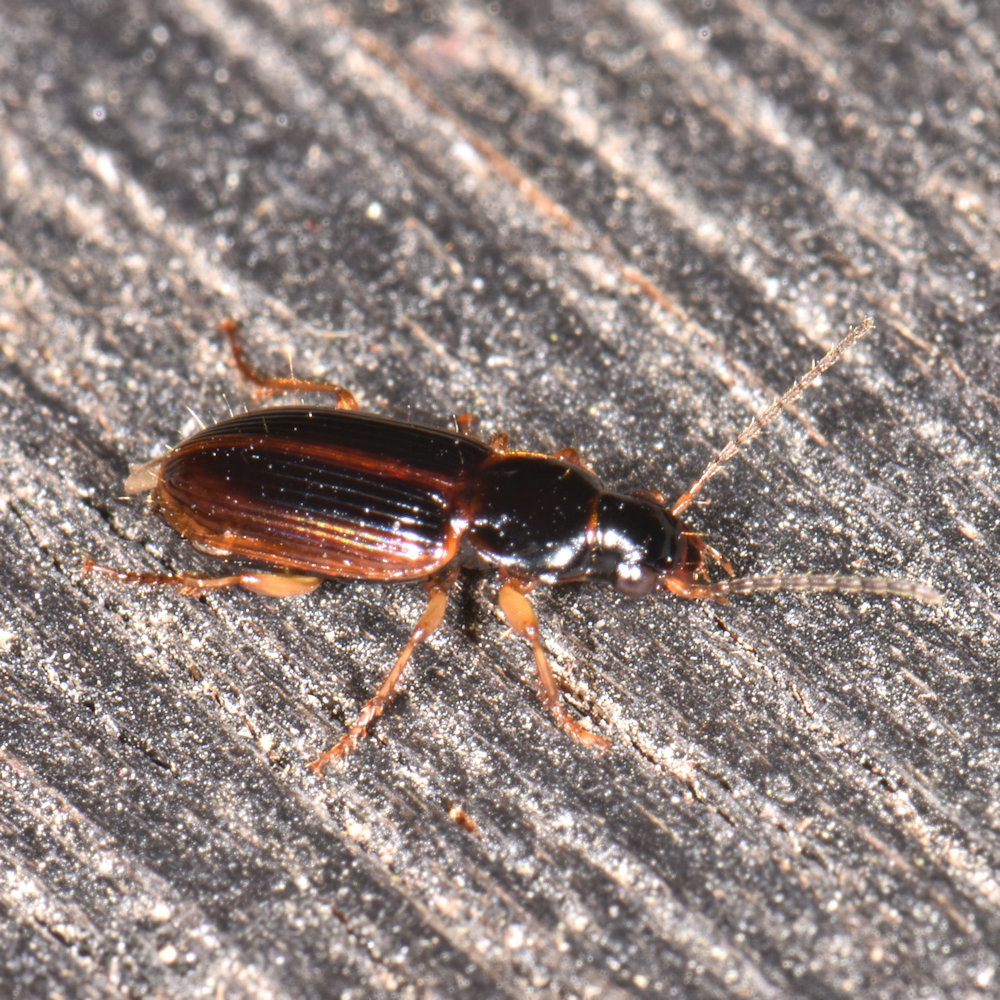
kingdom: Animalia
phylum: Arthropoda
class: Insecta
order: Coleoptera
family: Carabidae
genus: Stenolophus
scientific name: Stenolophus ochropezus
